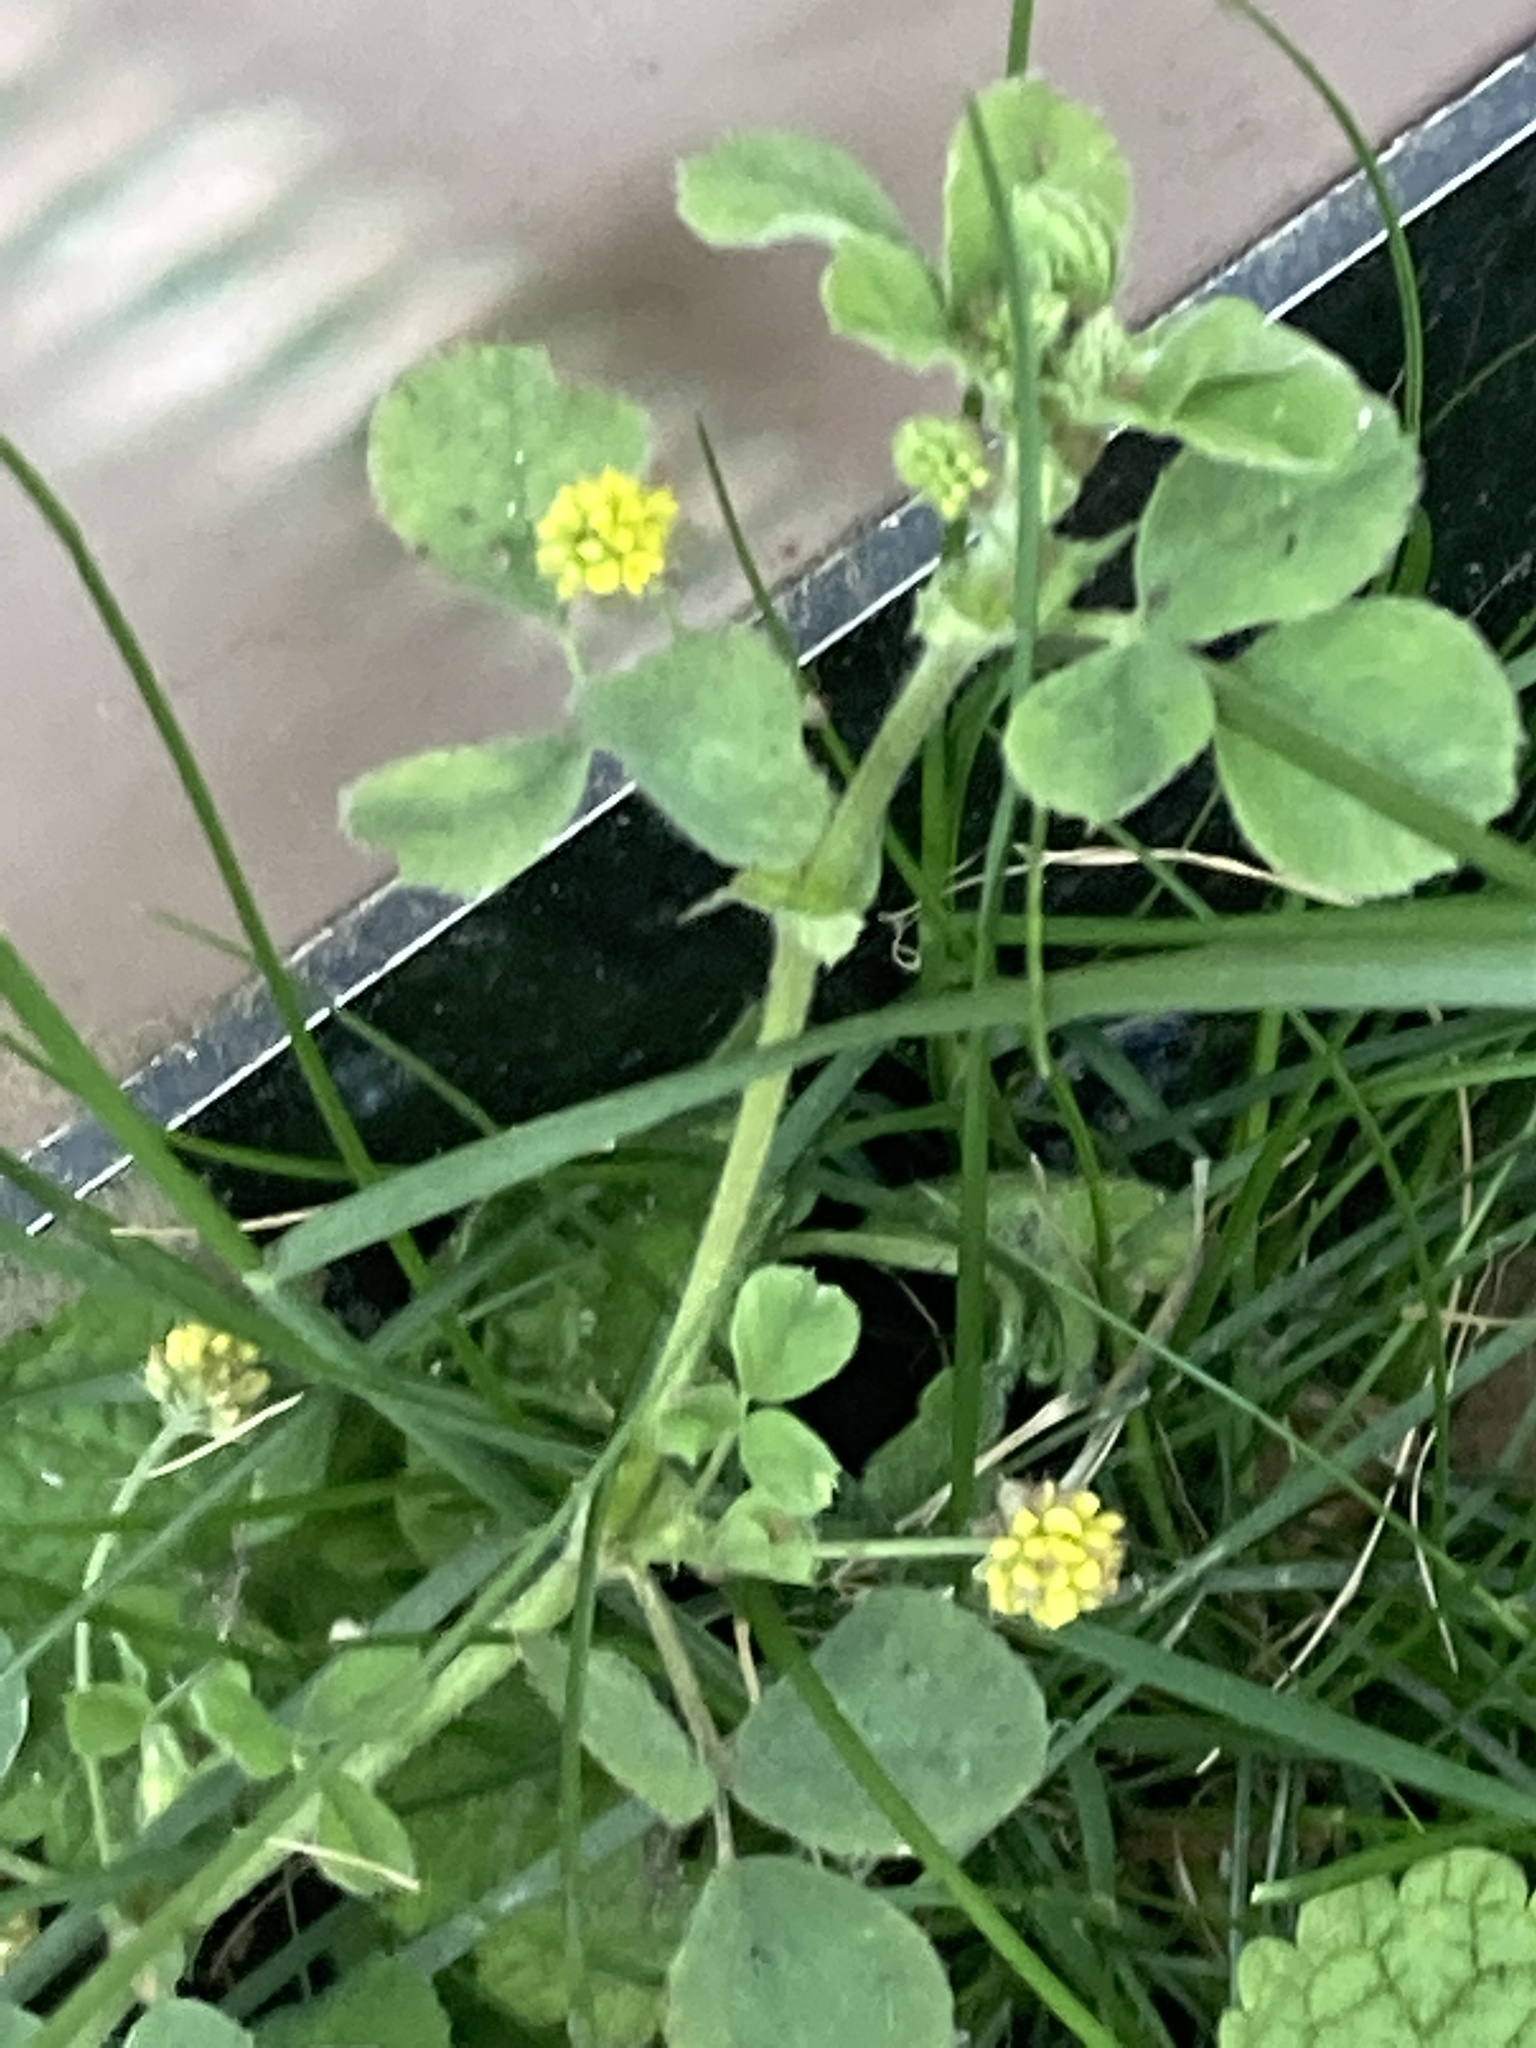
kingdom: Plantae
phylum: Tracheophyta
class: Magnoliopsida
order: Fabales
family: Fabaceae
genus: Medicago
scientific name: Medicago lupulina
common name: Black medick
